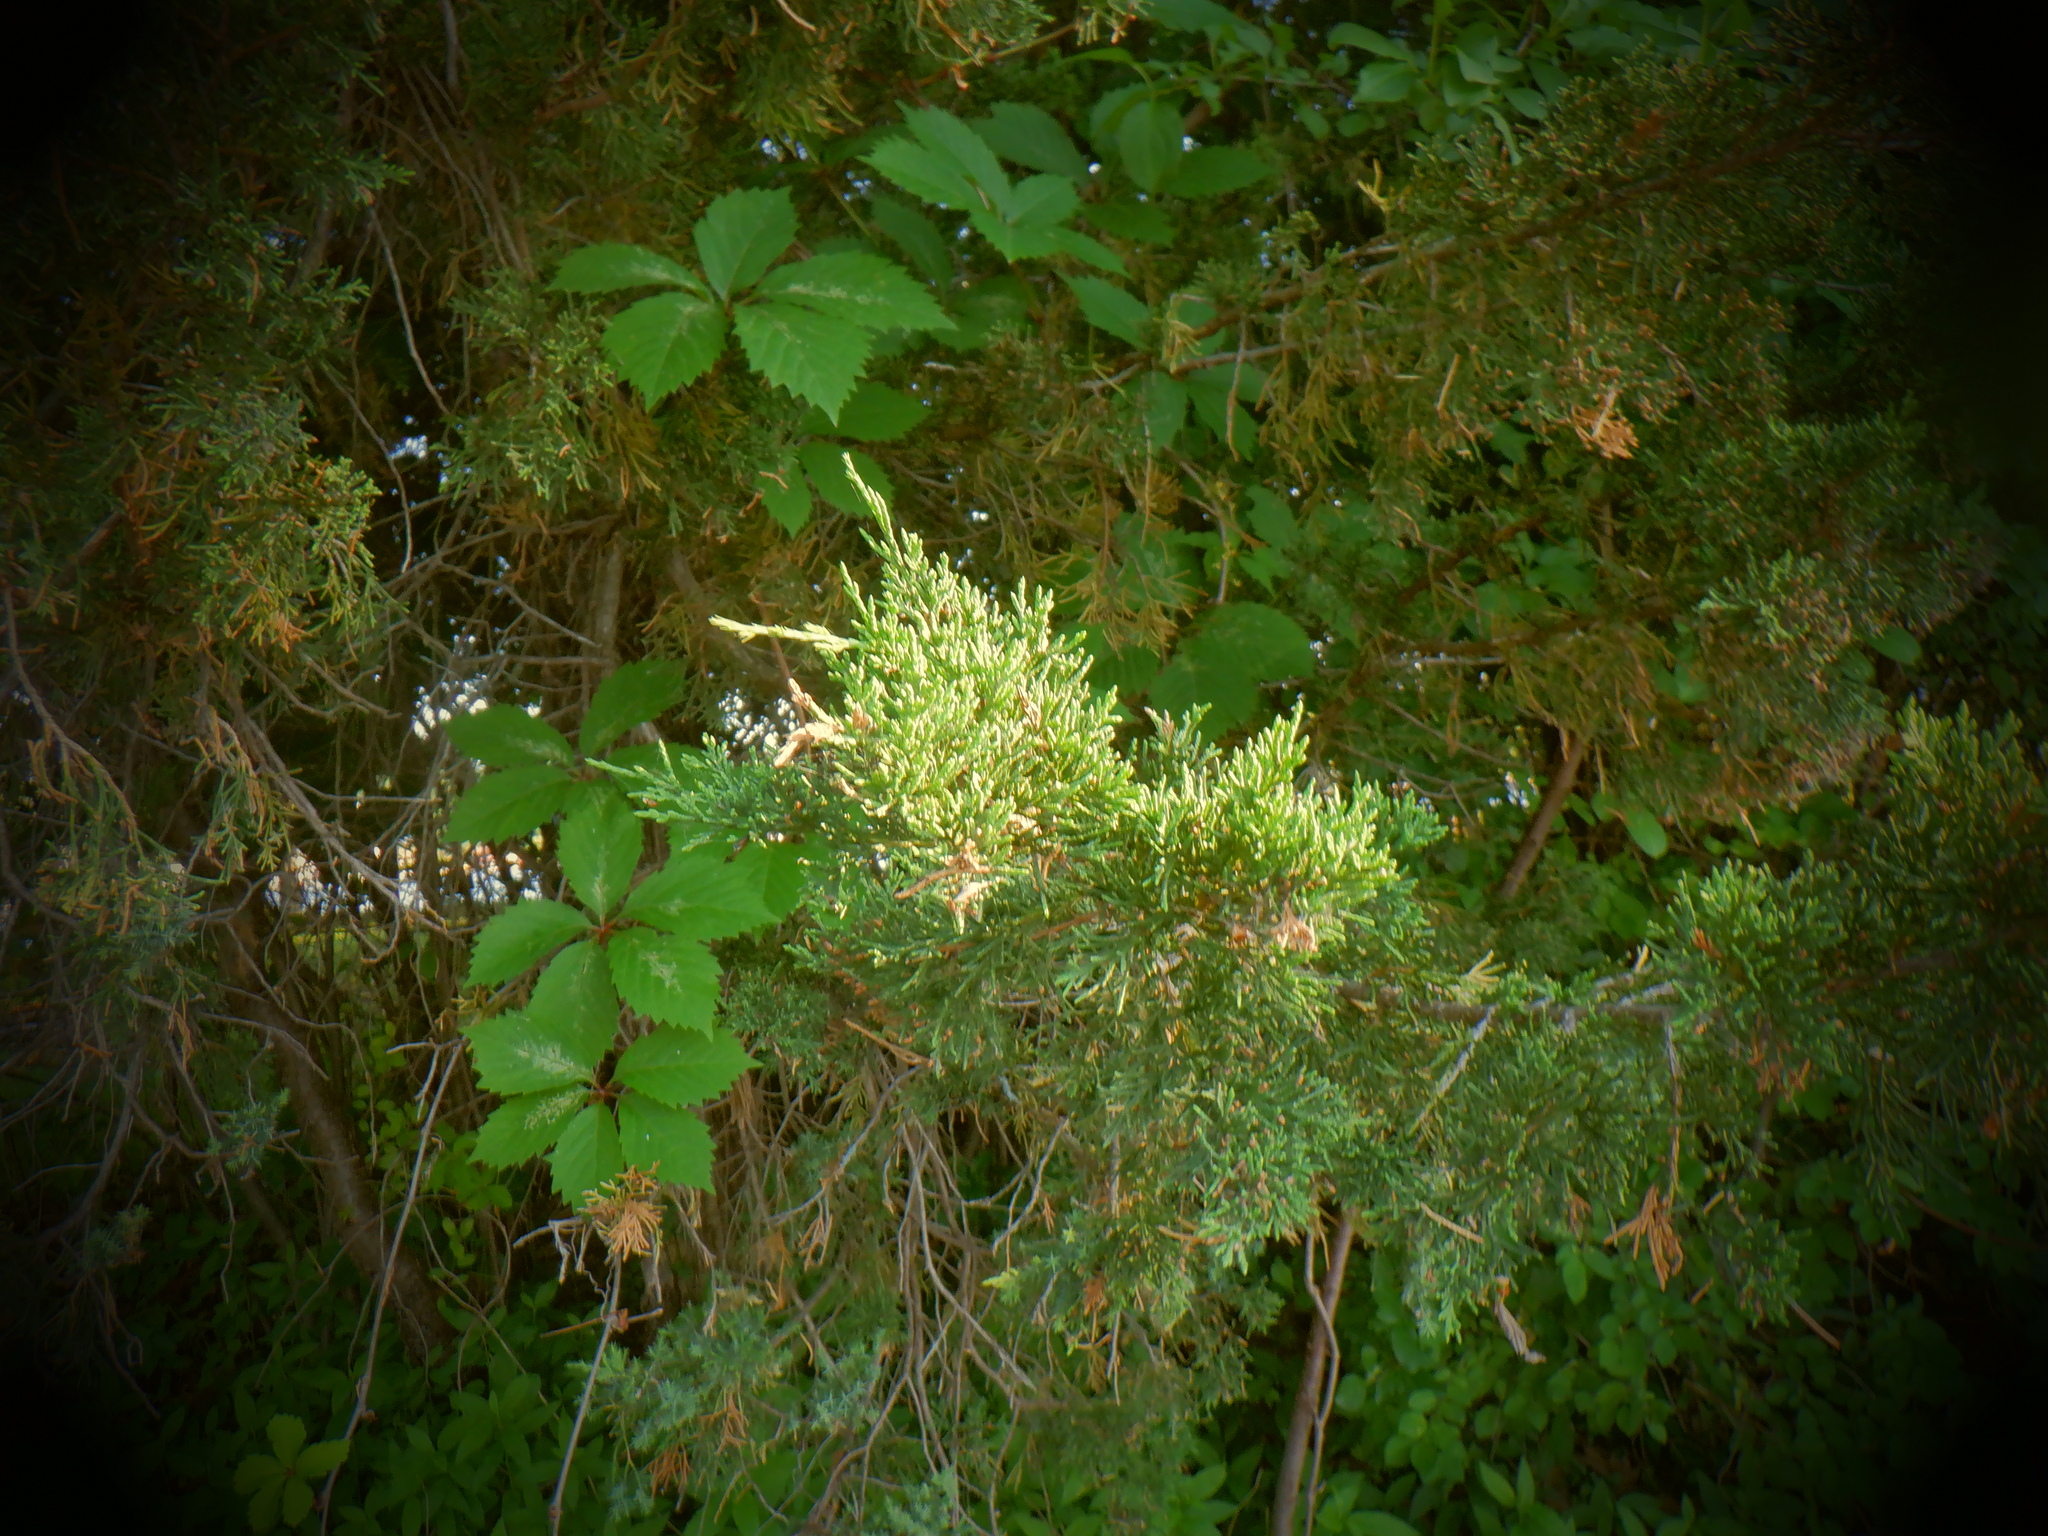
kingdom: Plantae
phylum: Tracheophyta
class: Pinopsida
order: Pinales
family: Cupressaceae
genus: Juniperus
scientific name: Juniperus virginiana
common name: Red juniper
